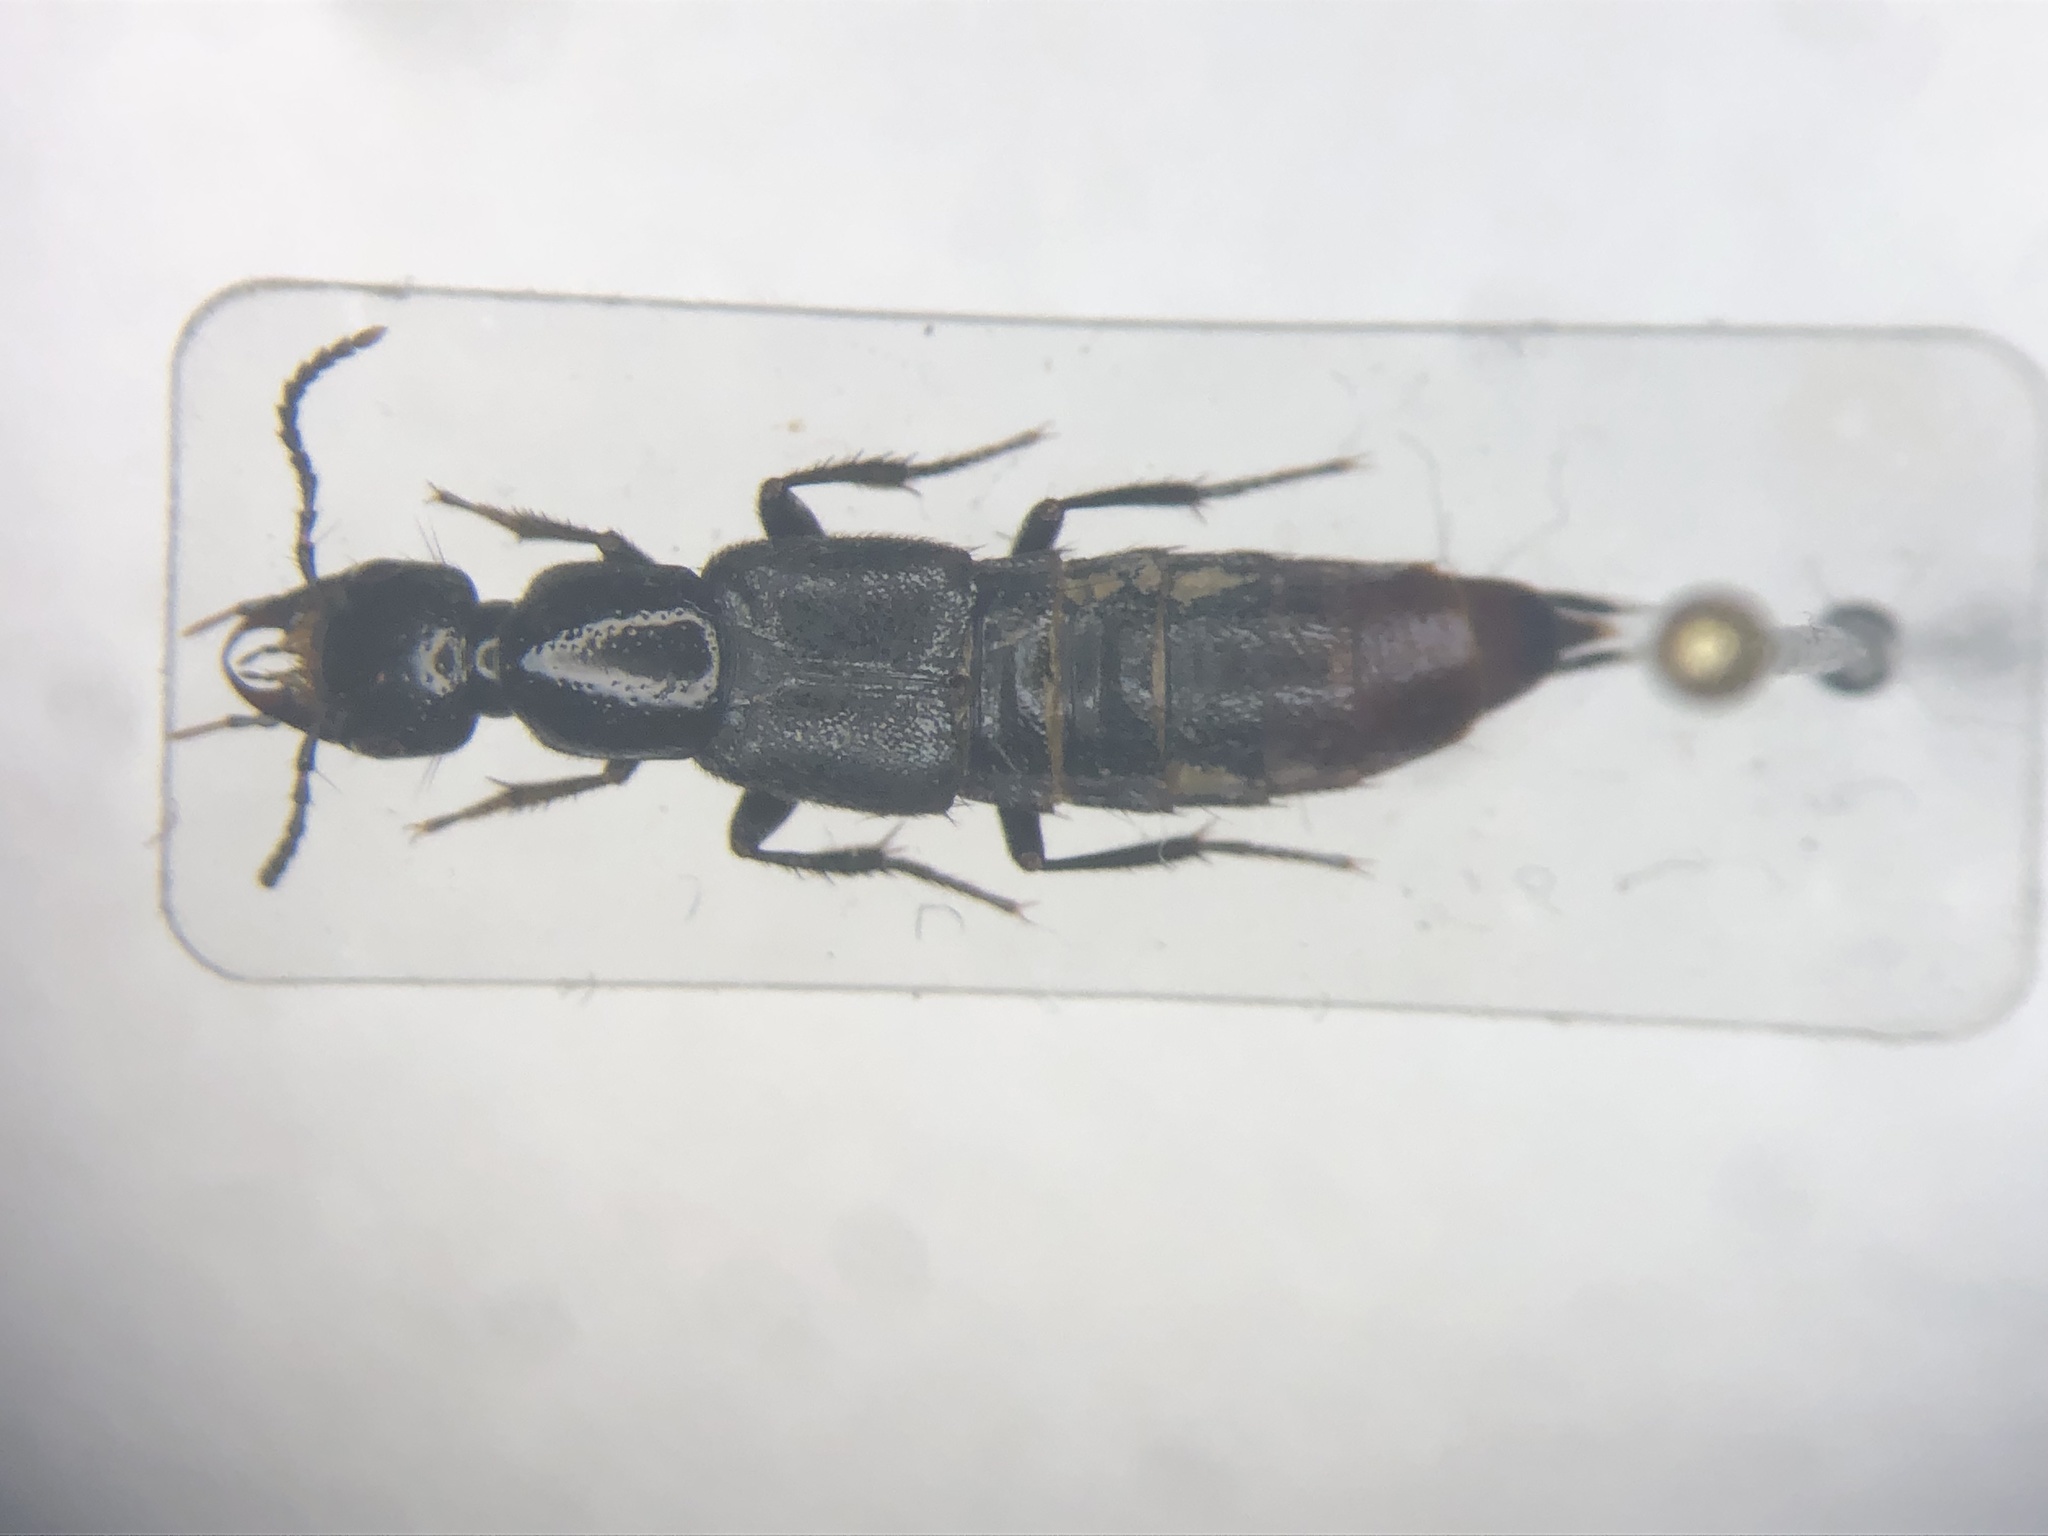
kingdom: Animalia
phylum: Arthropoda
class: Insecta
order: Coleoptera
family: Staphylinidae
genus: Hesperus
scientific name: Hesperus apicialis
